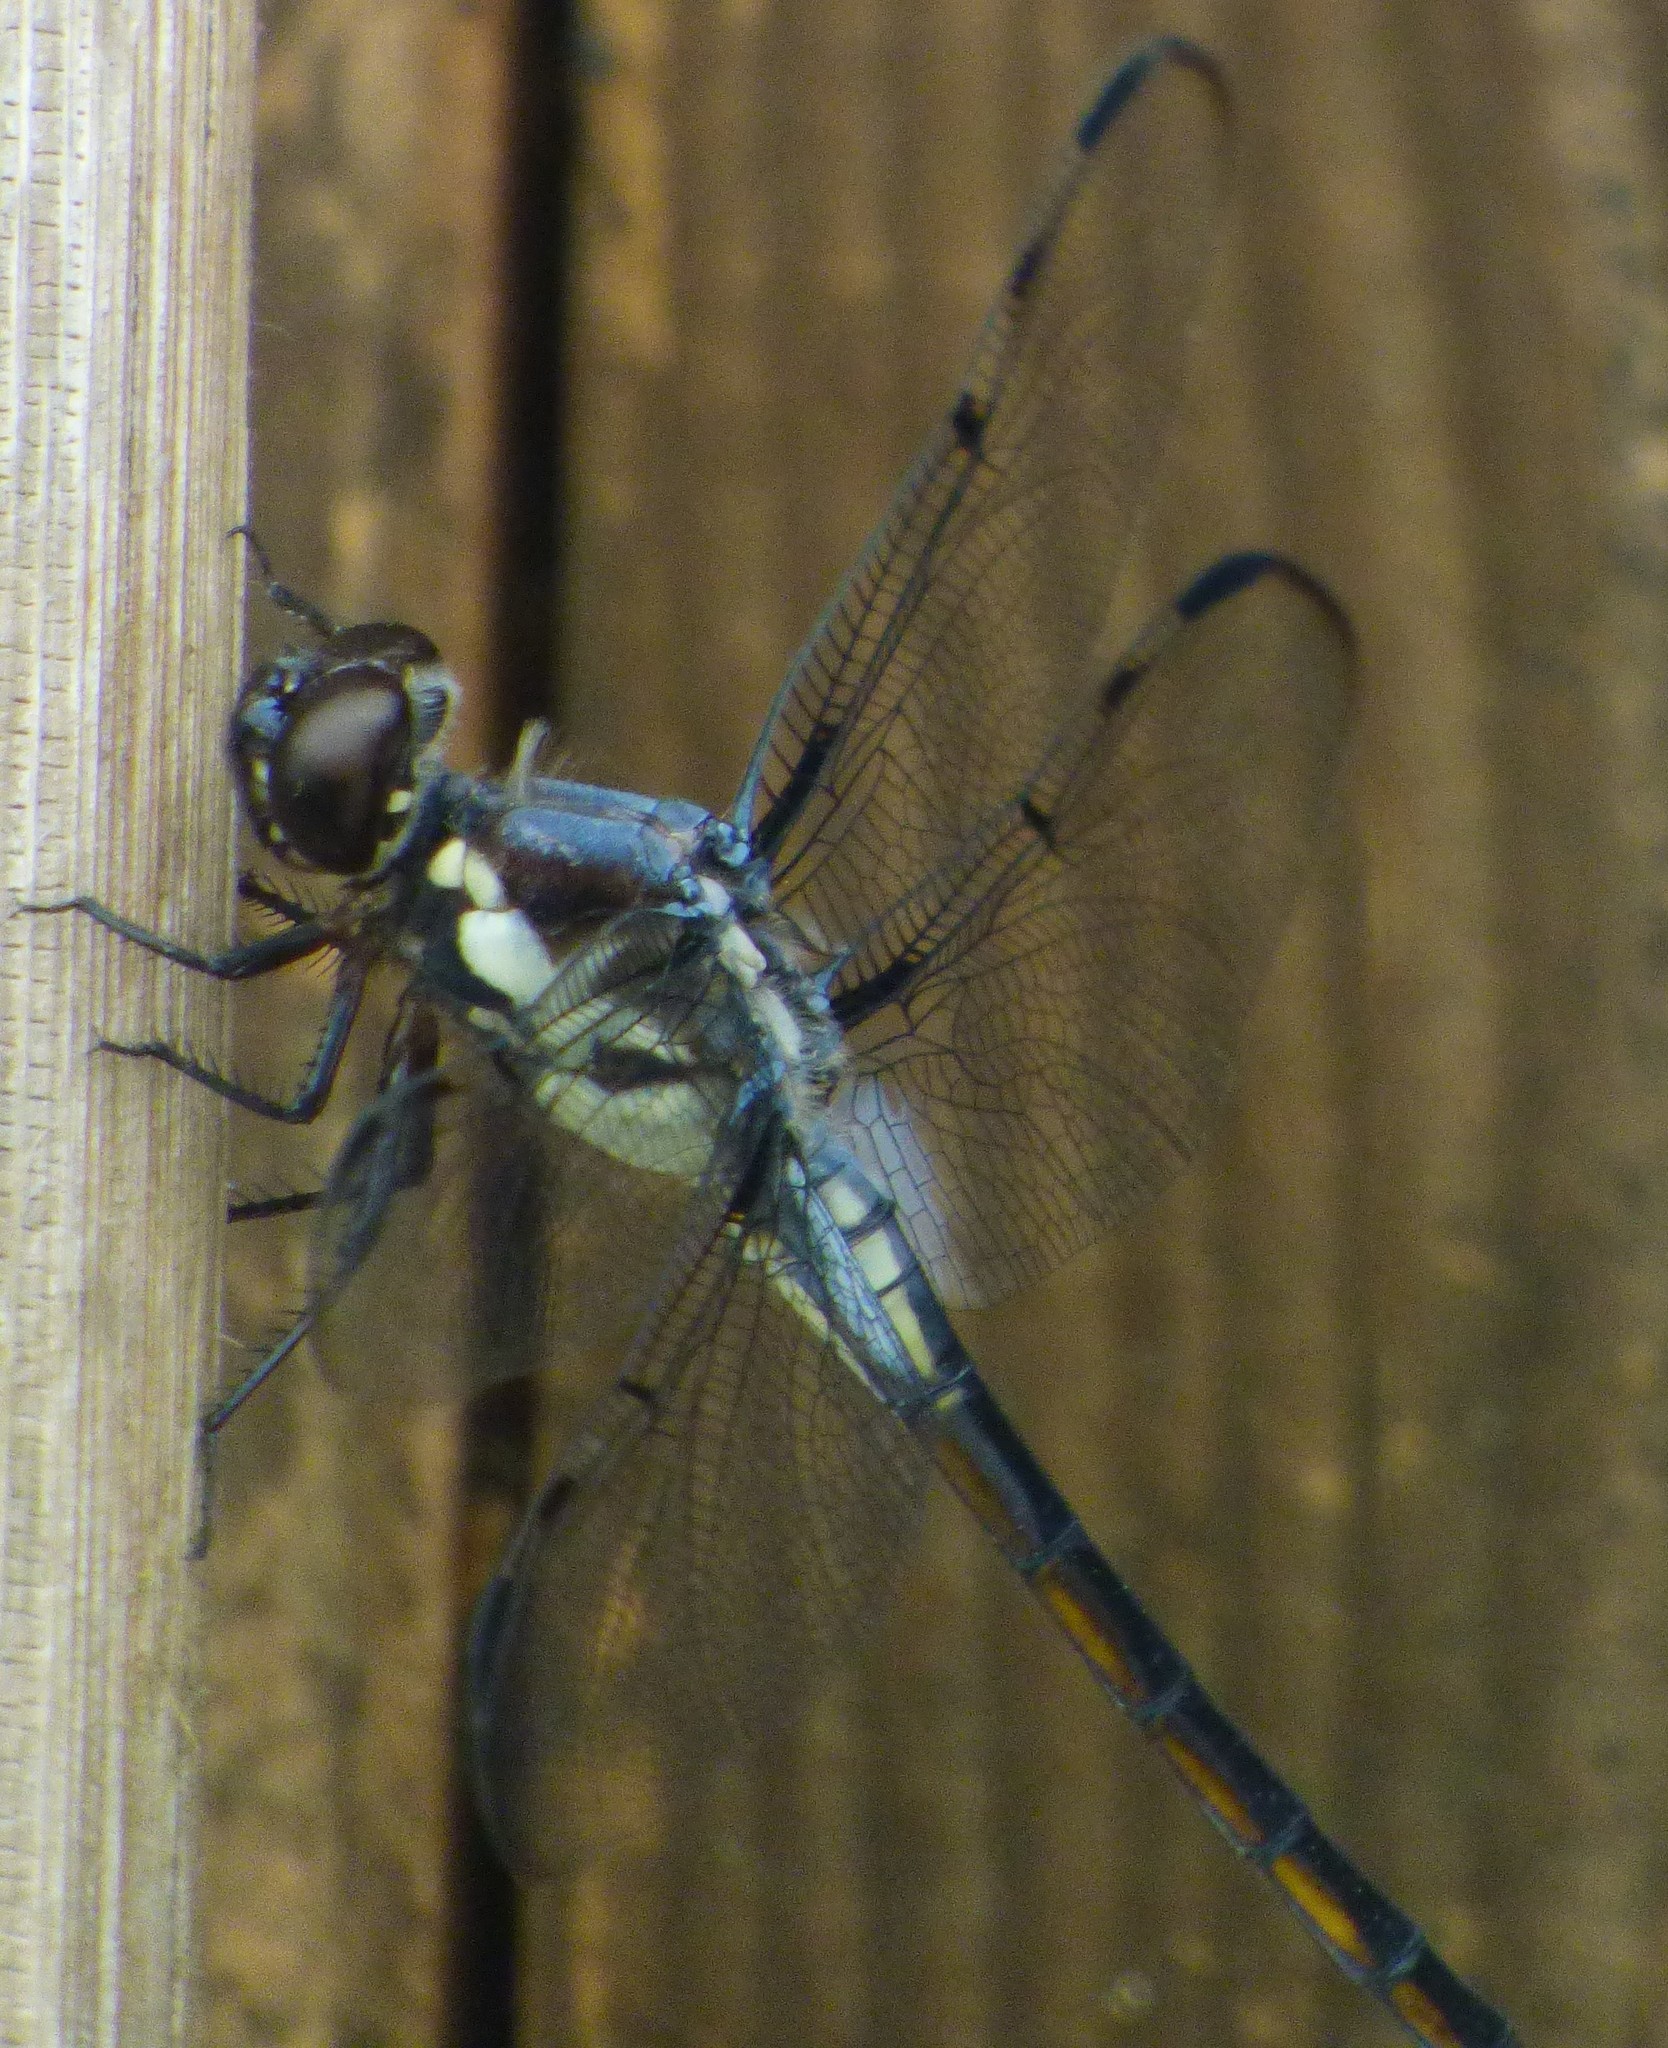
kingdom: Animalia
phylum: Arthropoda
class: Insecta
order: Odonata
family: Libellulidae
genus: Libellula
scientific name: Libellula axilena
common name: Bar-winged skimmer
